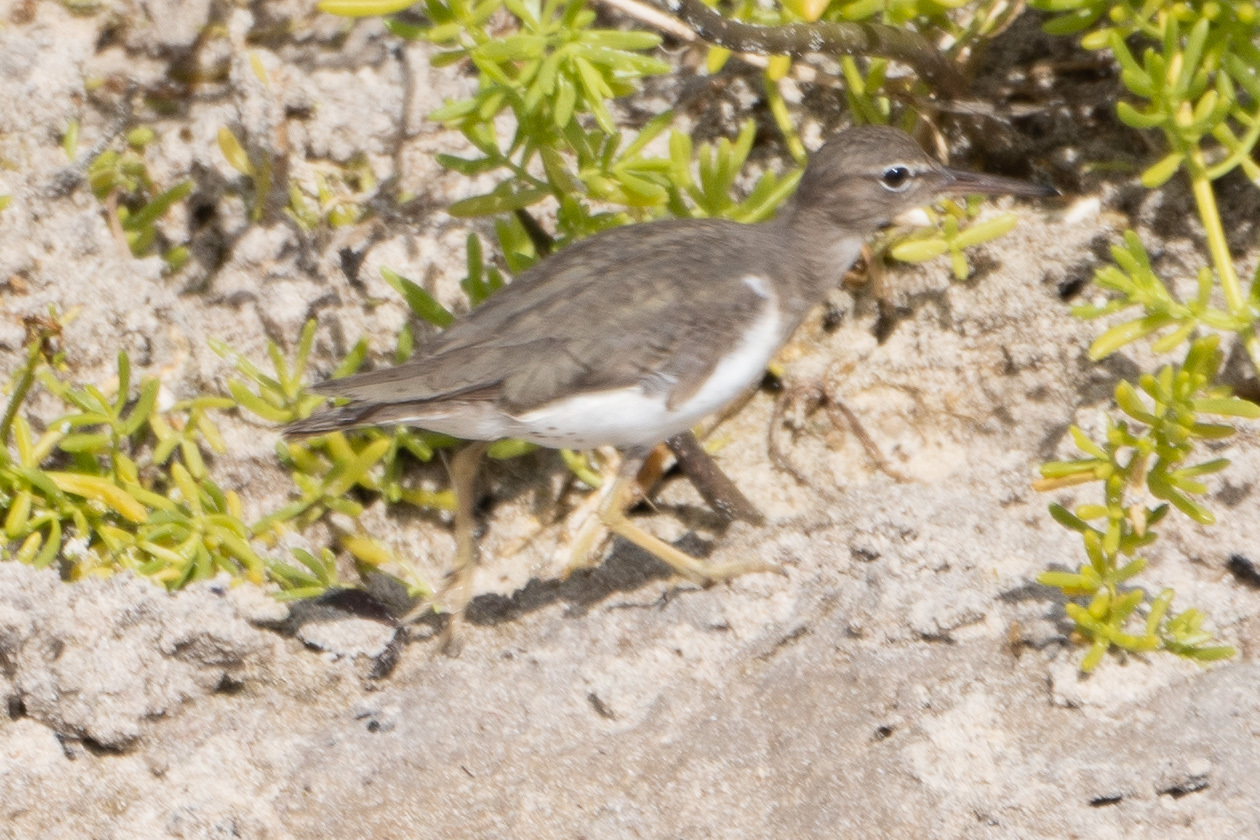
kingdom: Animalia
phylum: Chordata
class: Aves
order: Charadriiformes
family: Scolopacidae
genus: Actitis
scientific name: Actitis macularius
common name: Spotted sandpiper
